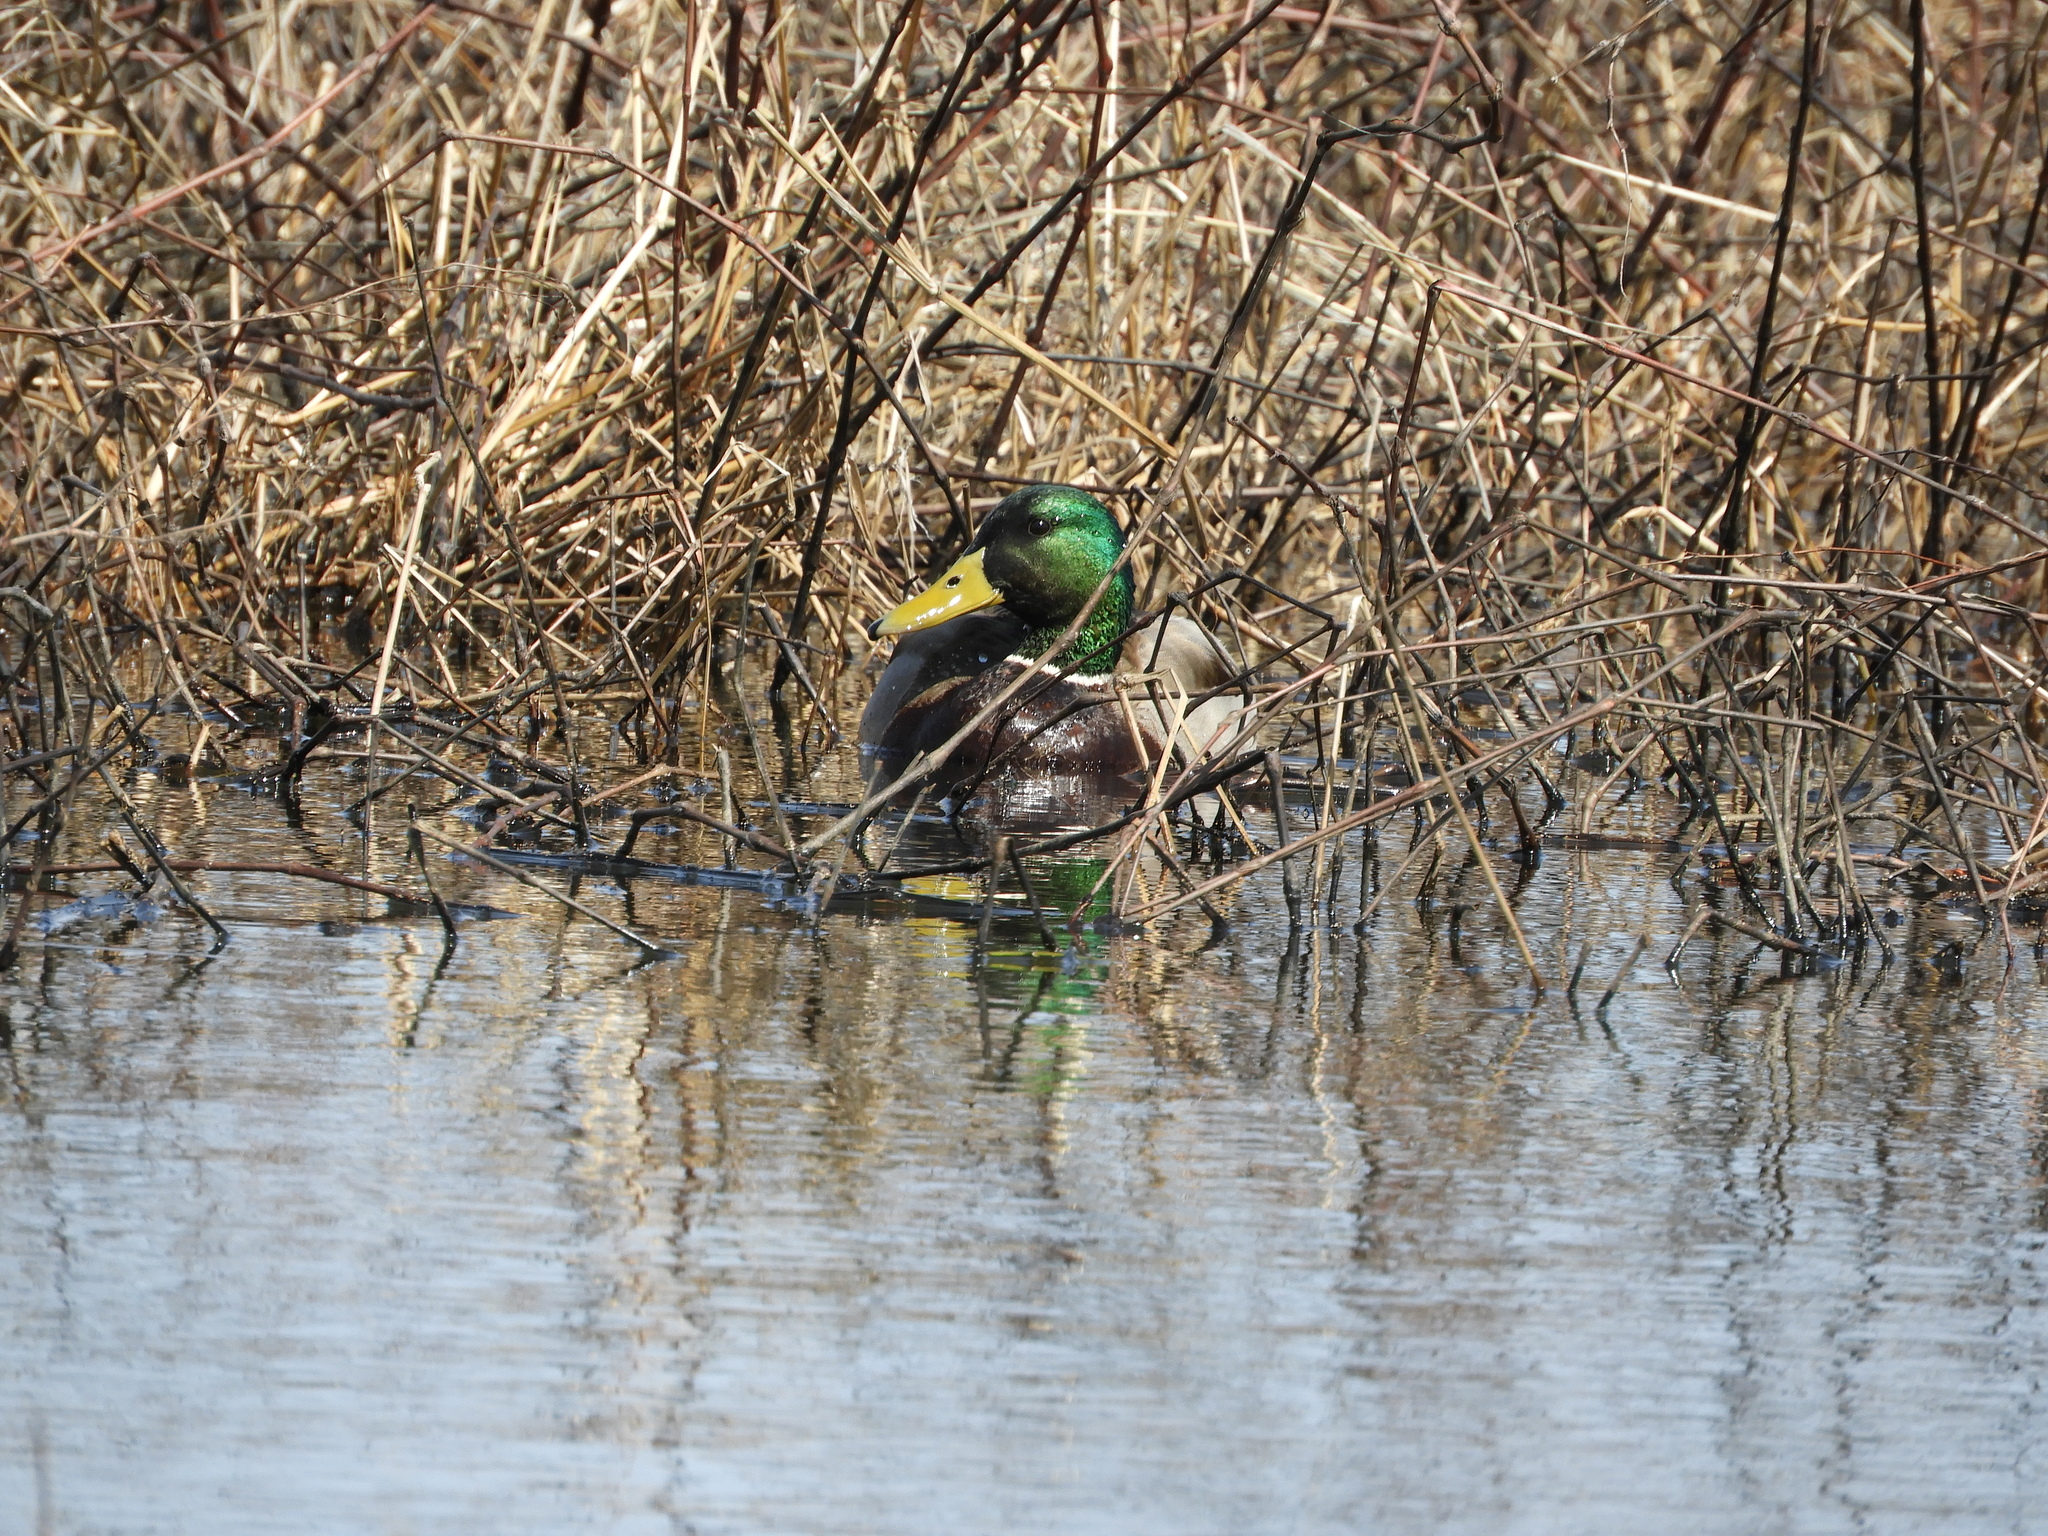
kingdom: Animalia
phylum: Chordata
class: Aves
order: Anseriformes
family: Anatidae
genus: Anas
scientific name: Anas platyrhynchos
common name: Mallard
